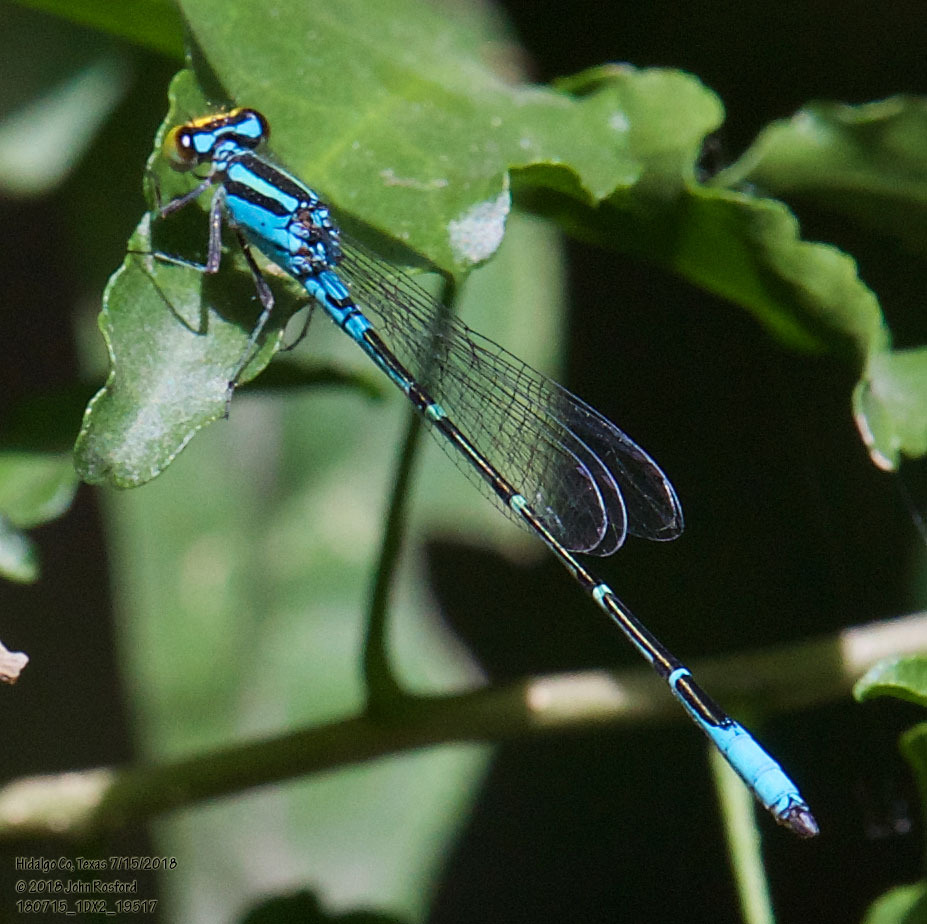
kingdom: Animalia
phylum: Arthropoda
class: Insecta
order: Odonata
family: Coenagrionidae
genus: Neoerythromma
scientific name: Neoerythromma cultellatum
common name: Caribbean yellowface
